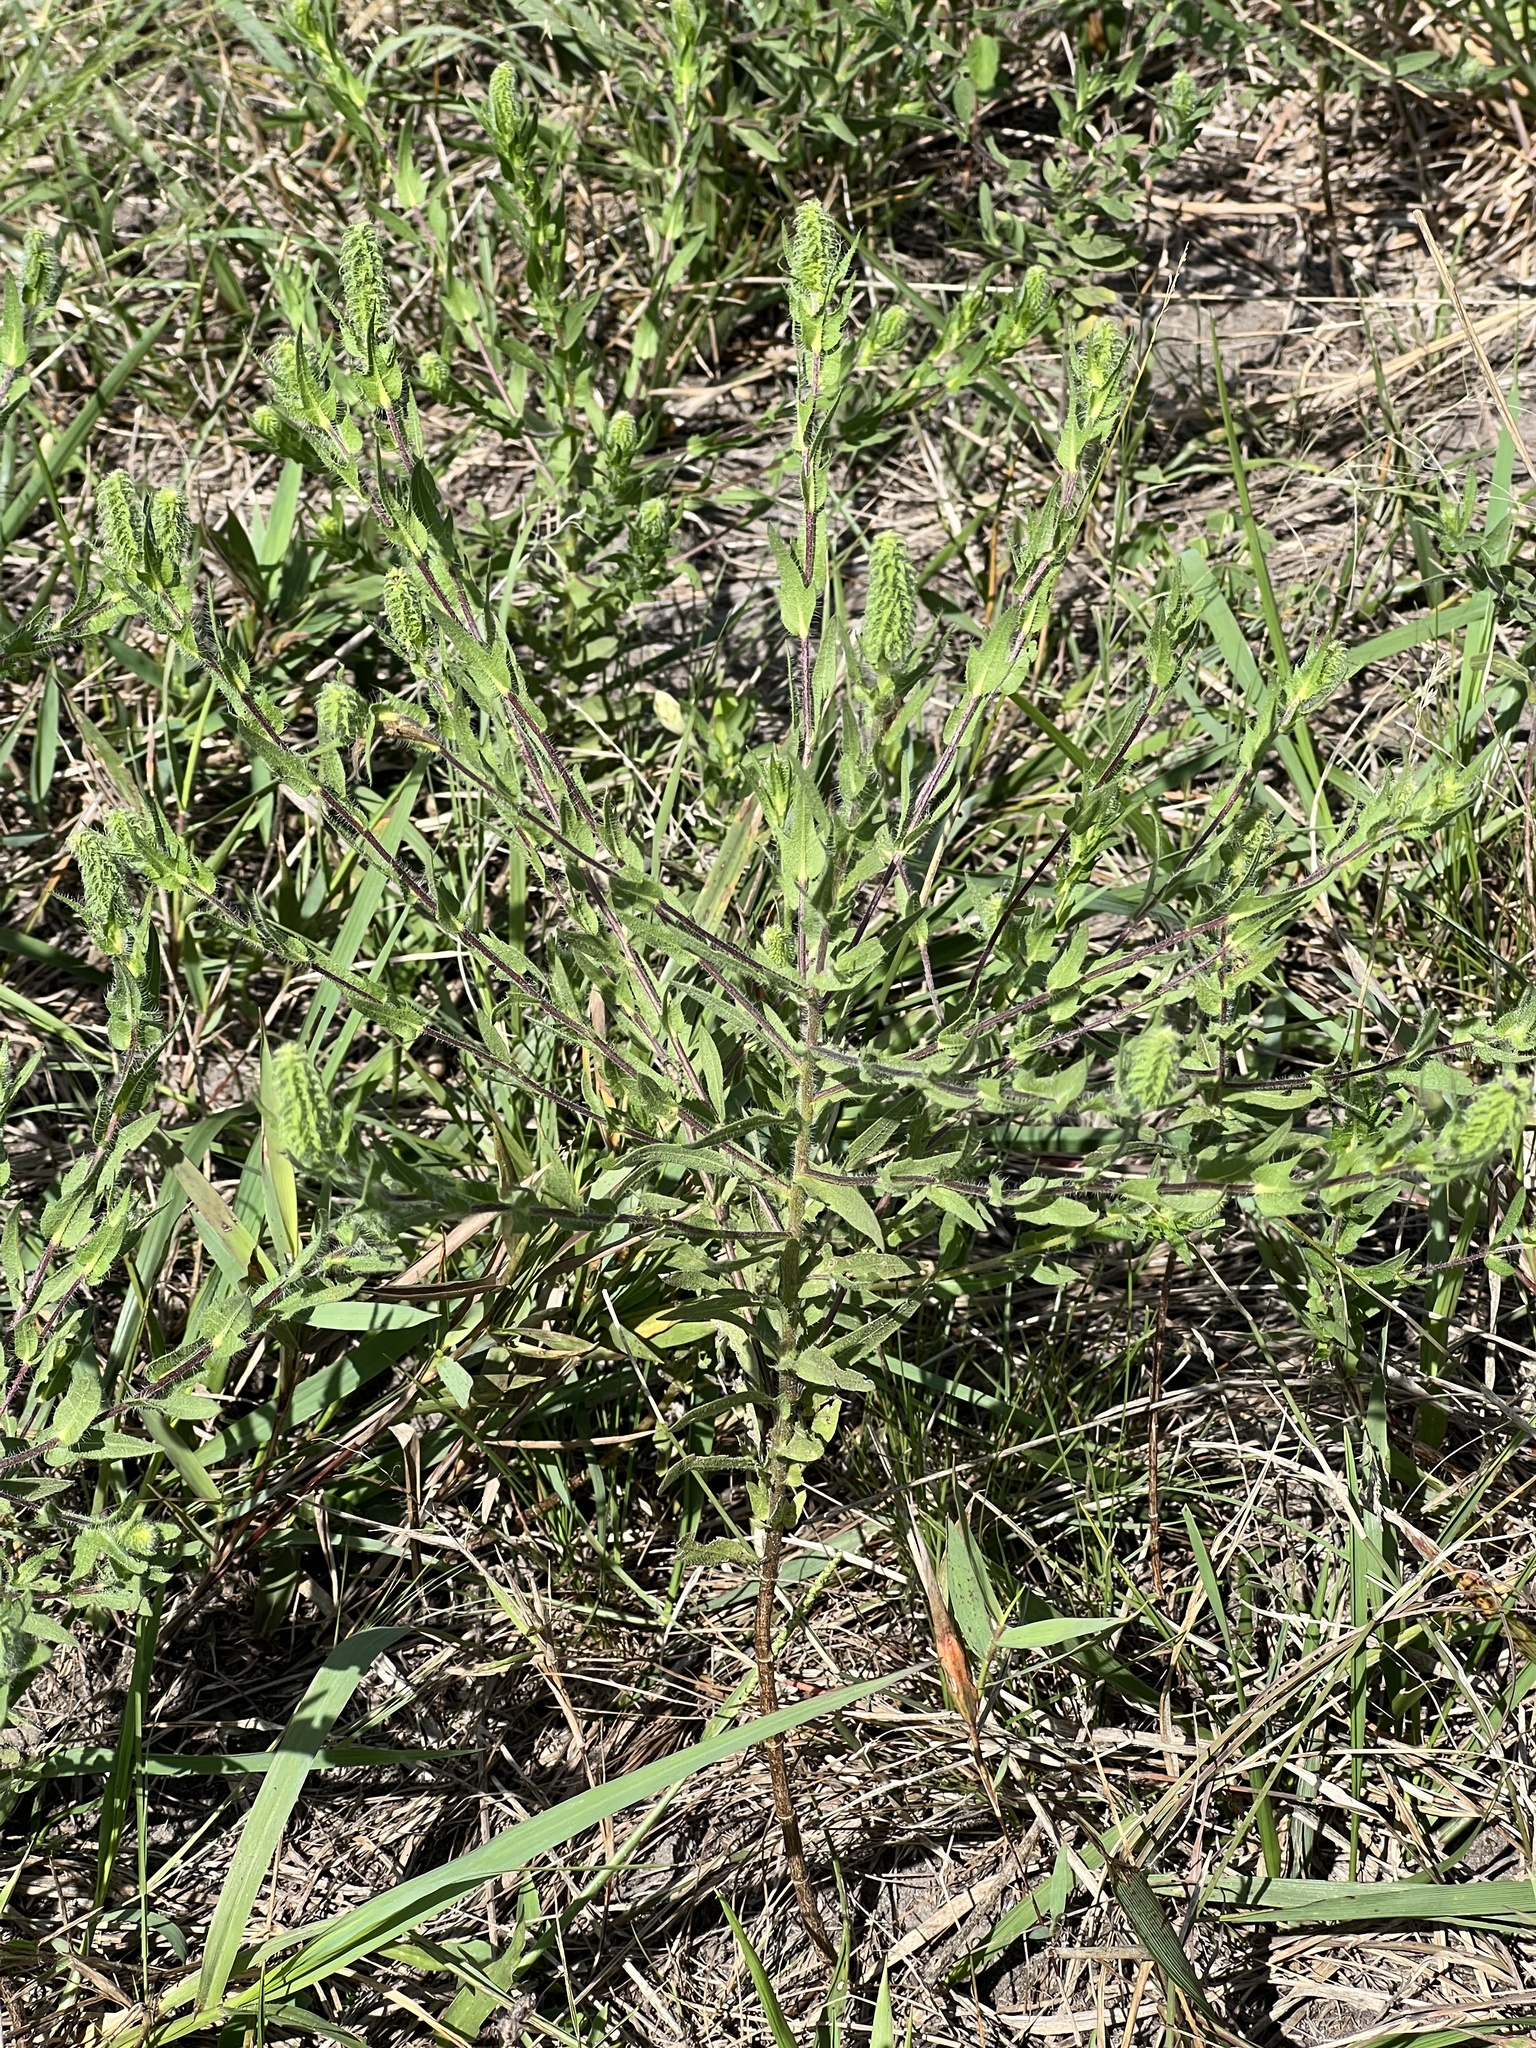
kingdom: Plantae
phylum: Tracheophyta
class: Magnoliopsida
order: Asterales
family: Asteraceae
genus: Ambrosia
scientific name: Ambrosia bidentata
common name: Southern ragweed
